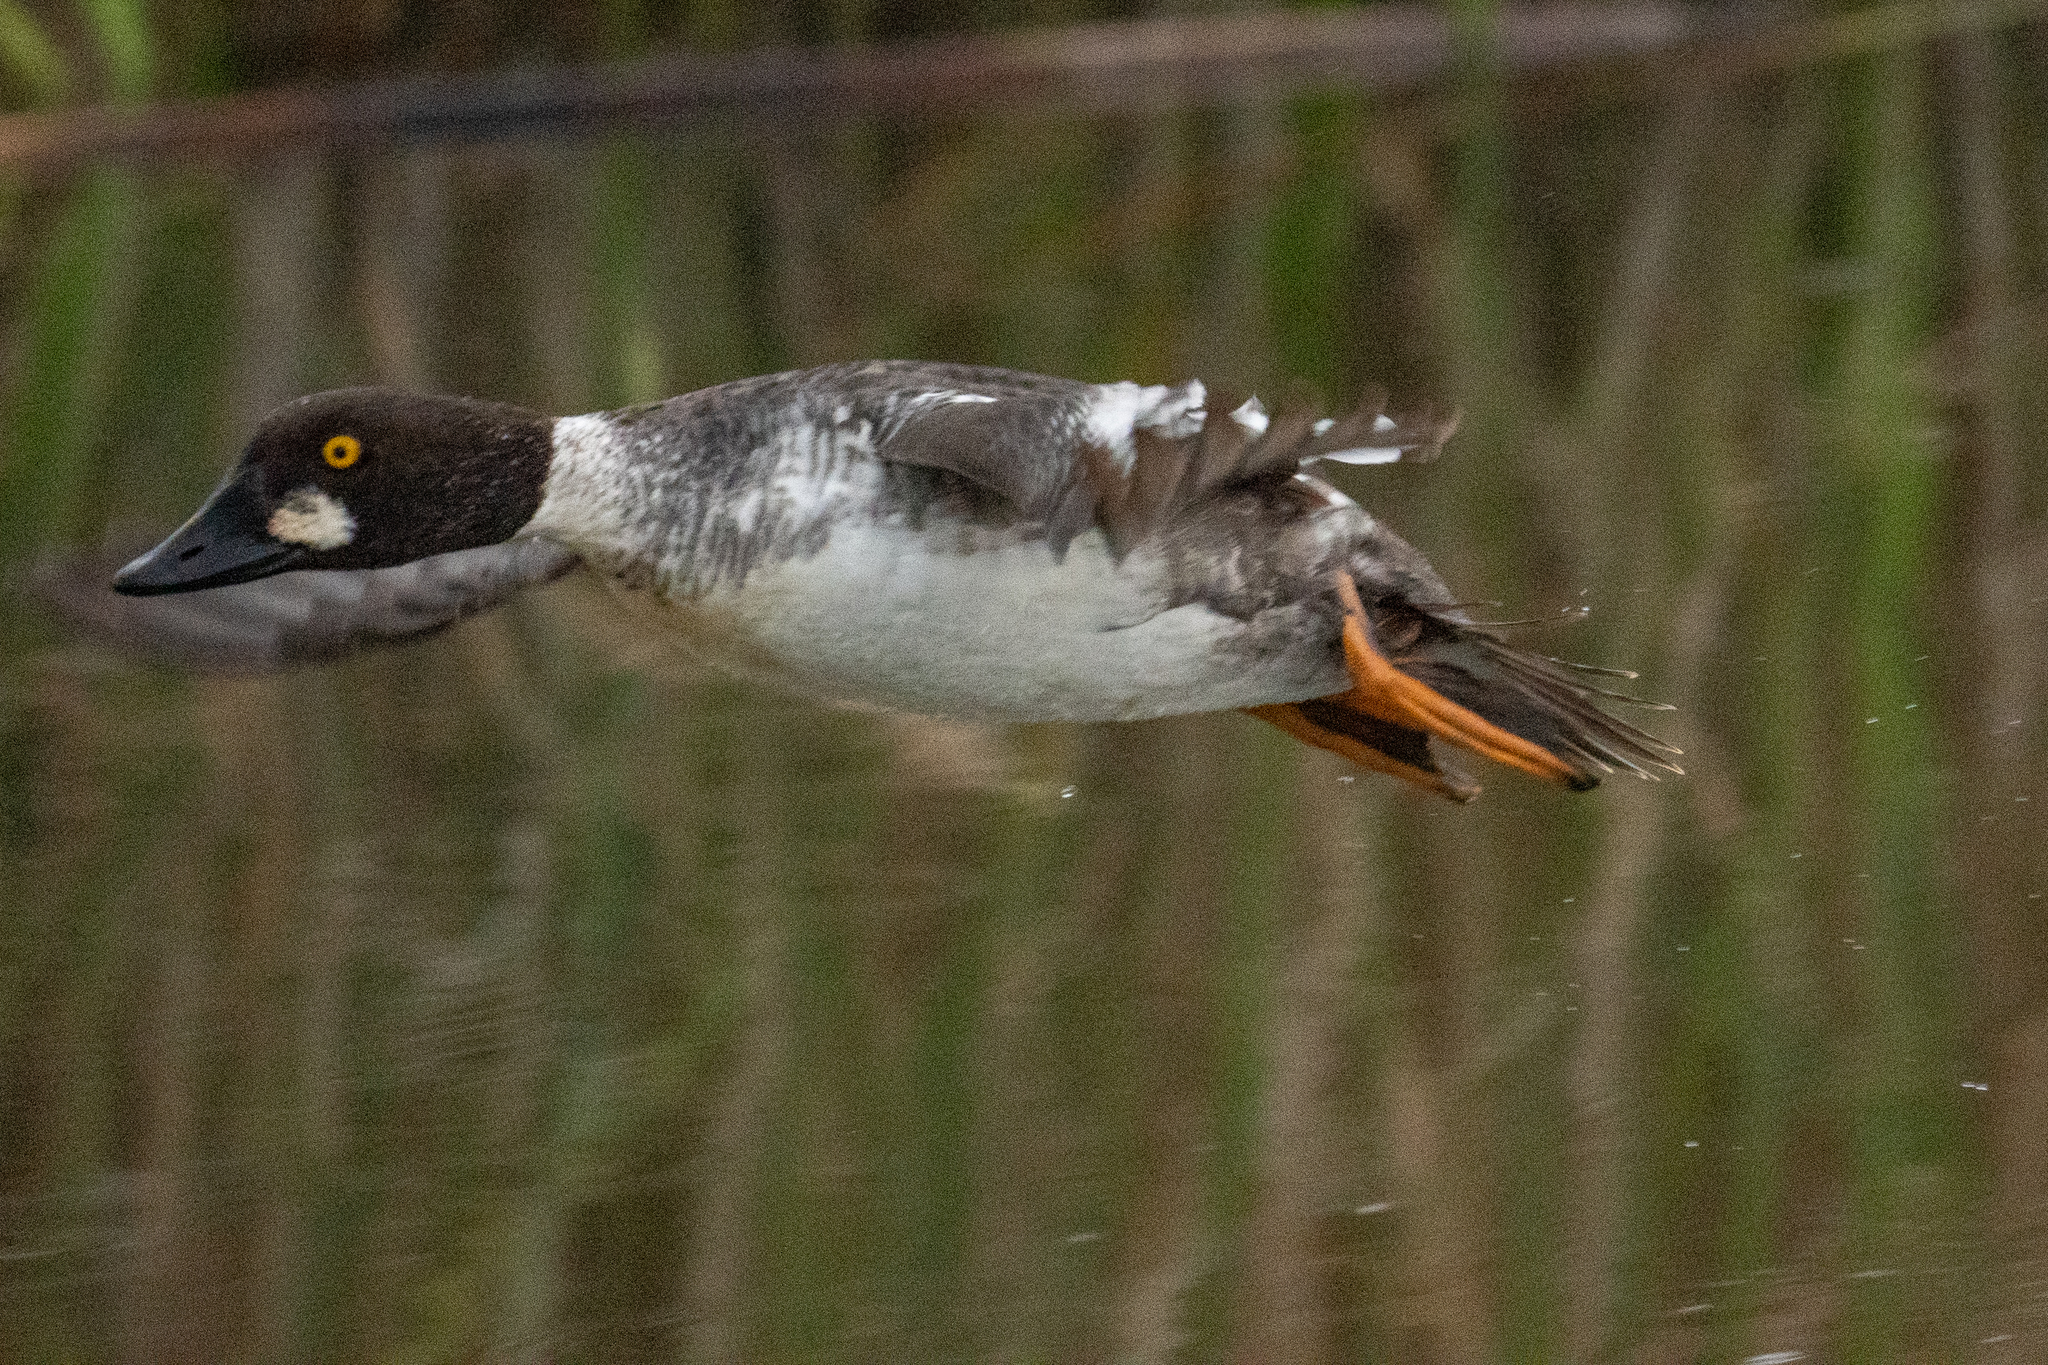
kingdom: Animalia
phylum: Chordata
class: Aves
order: Anseriformes
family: Anatidae
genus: Bucephala
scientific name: Bucephala clangula
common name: Common goldeneye
